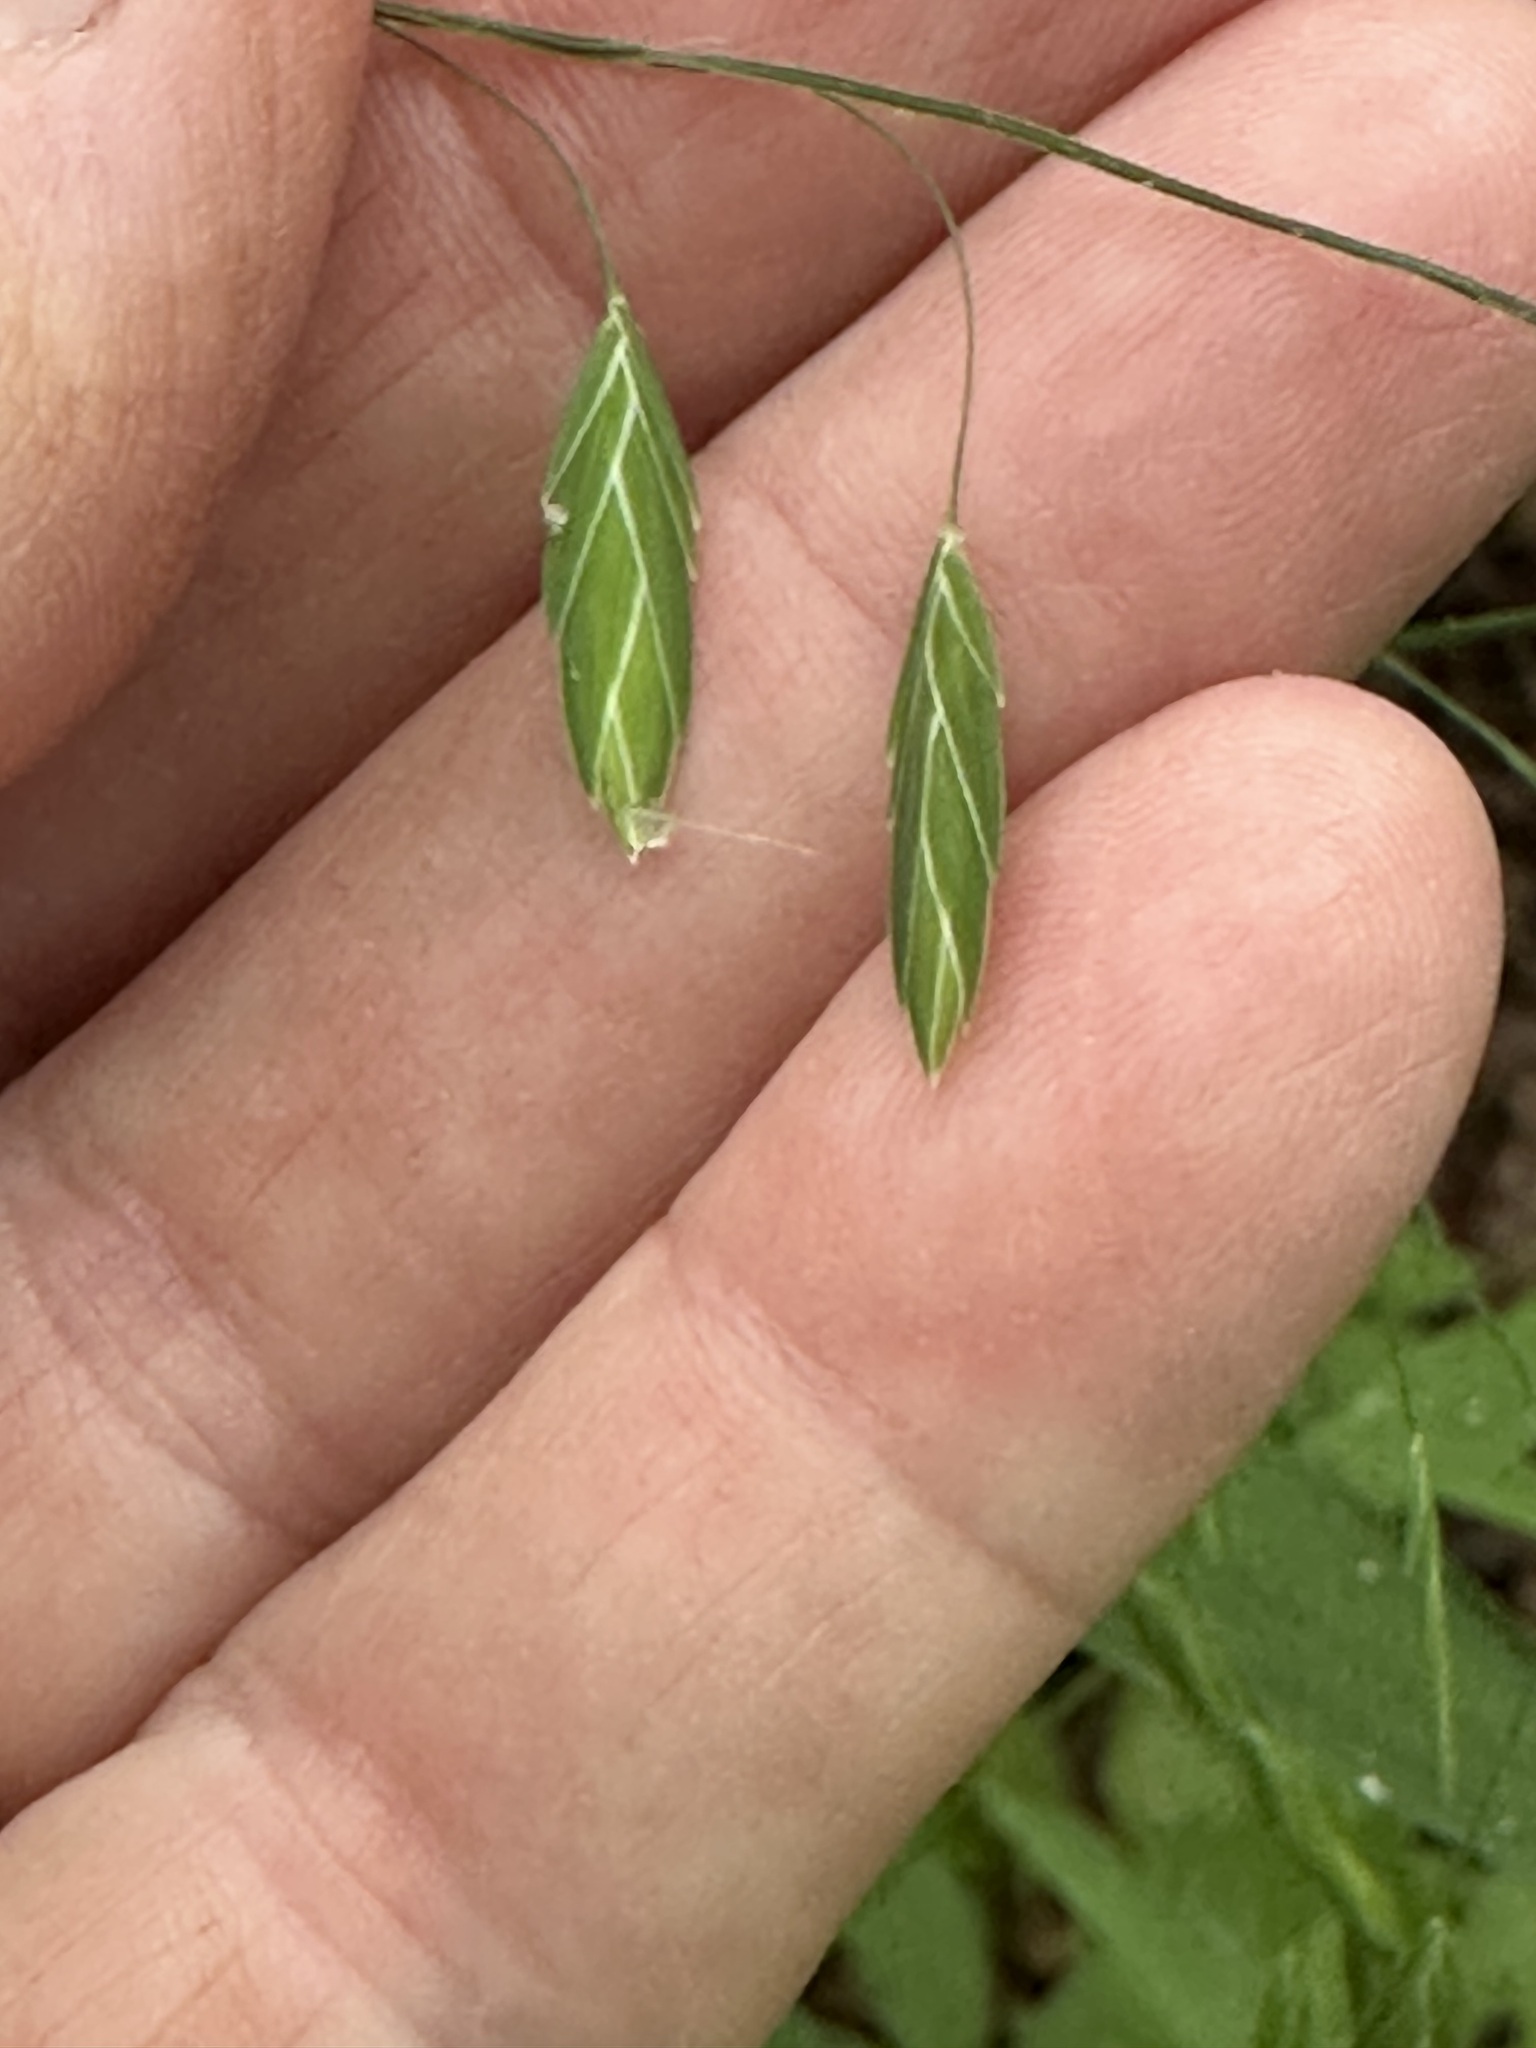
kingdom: Plantae
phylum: Tracheophyta
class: Liliopsida
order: Poales
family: Poaceae
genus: Chasmanthium
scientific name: Chasmanthium latifolium
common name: Broad-leaved chasmanthium
